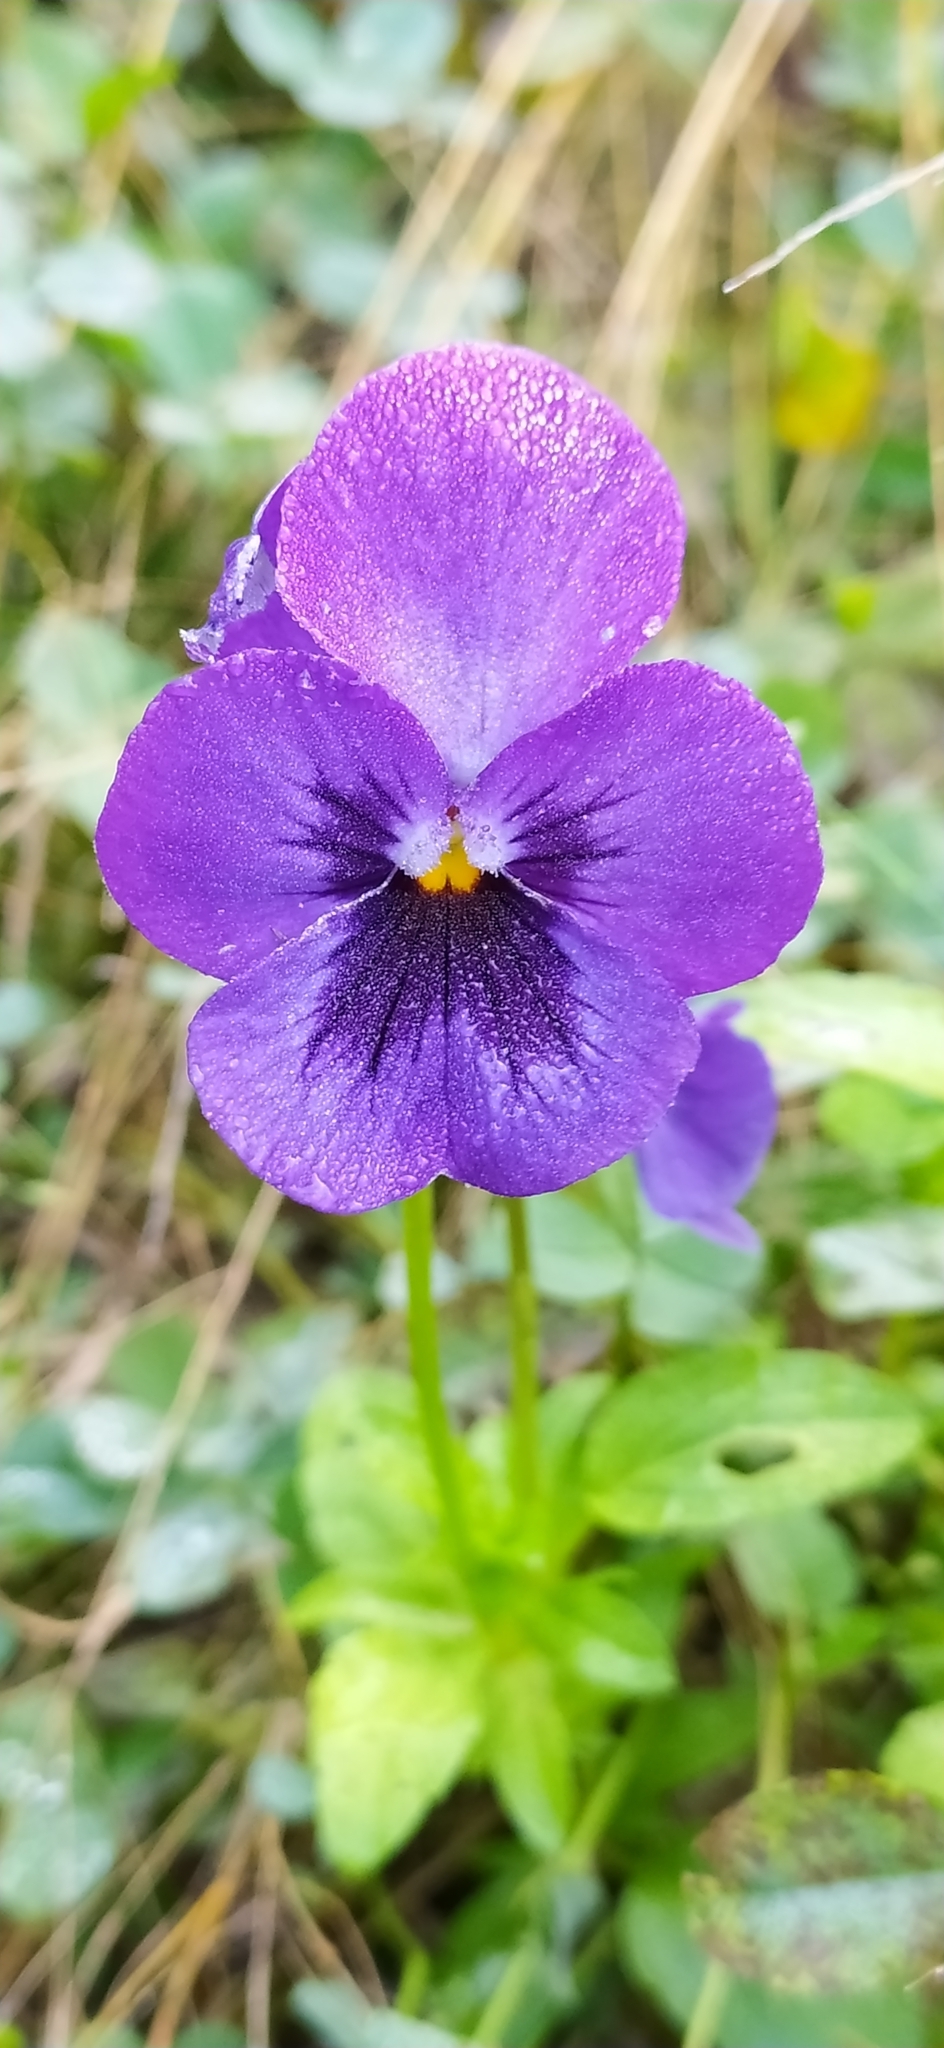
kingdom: Plantae
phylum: Tracheophyta
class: Magnoliopsida
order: Malpighiales
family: Violaceae
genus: Viola
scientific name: Viola wittrockiana
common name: Garden pansy
